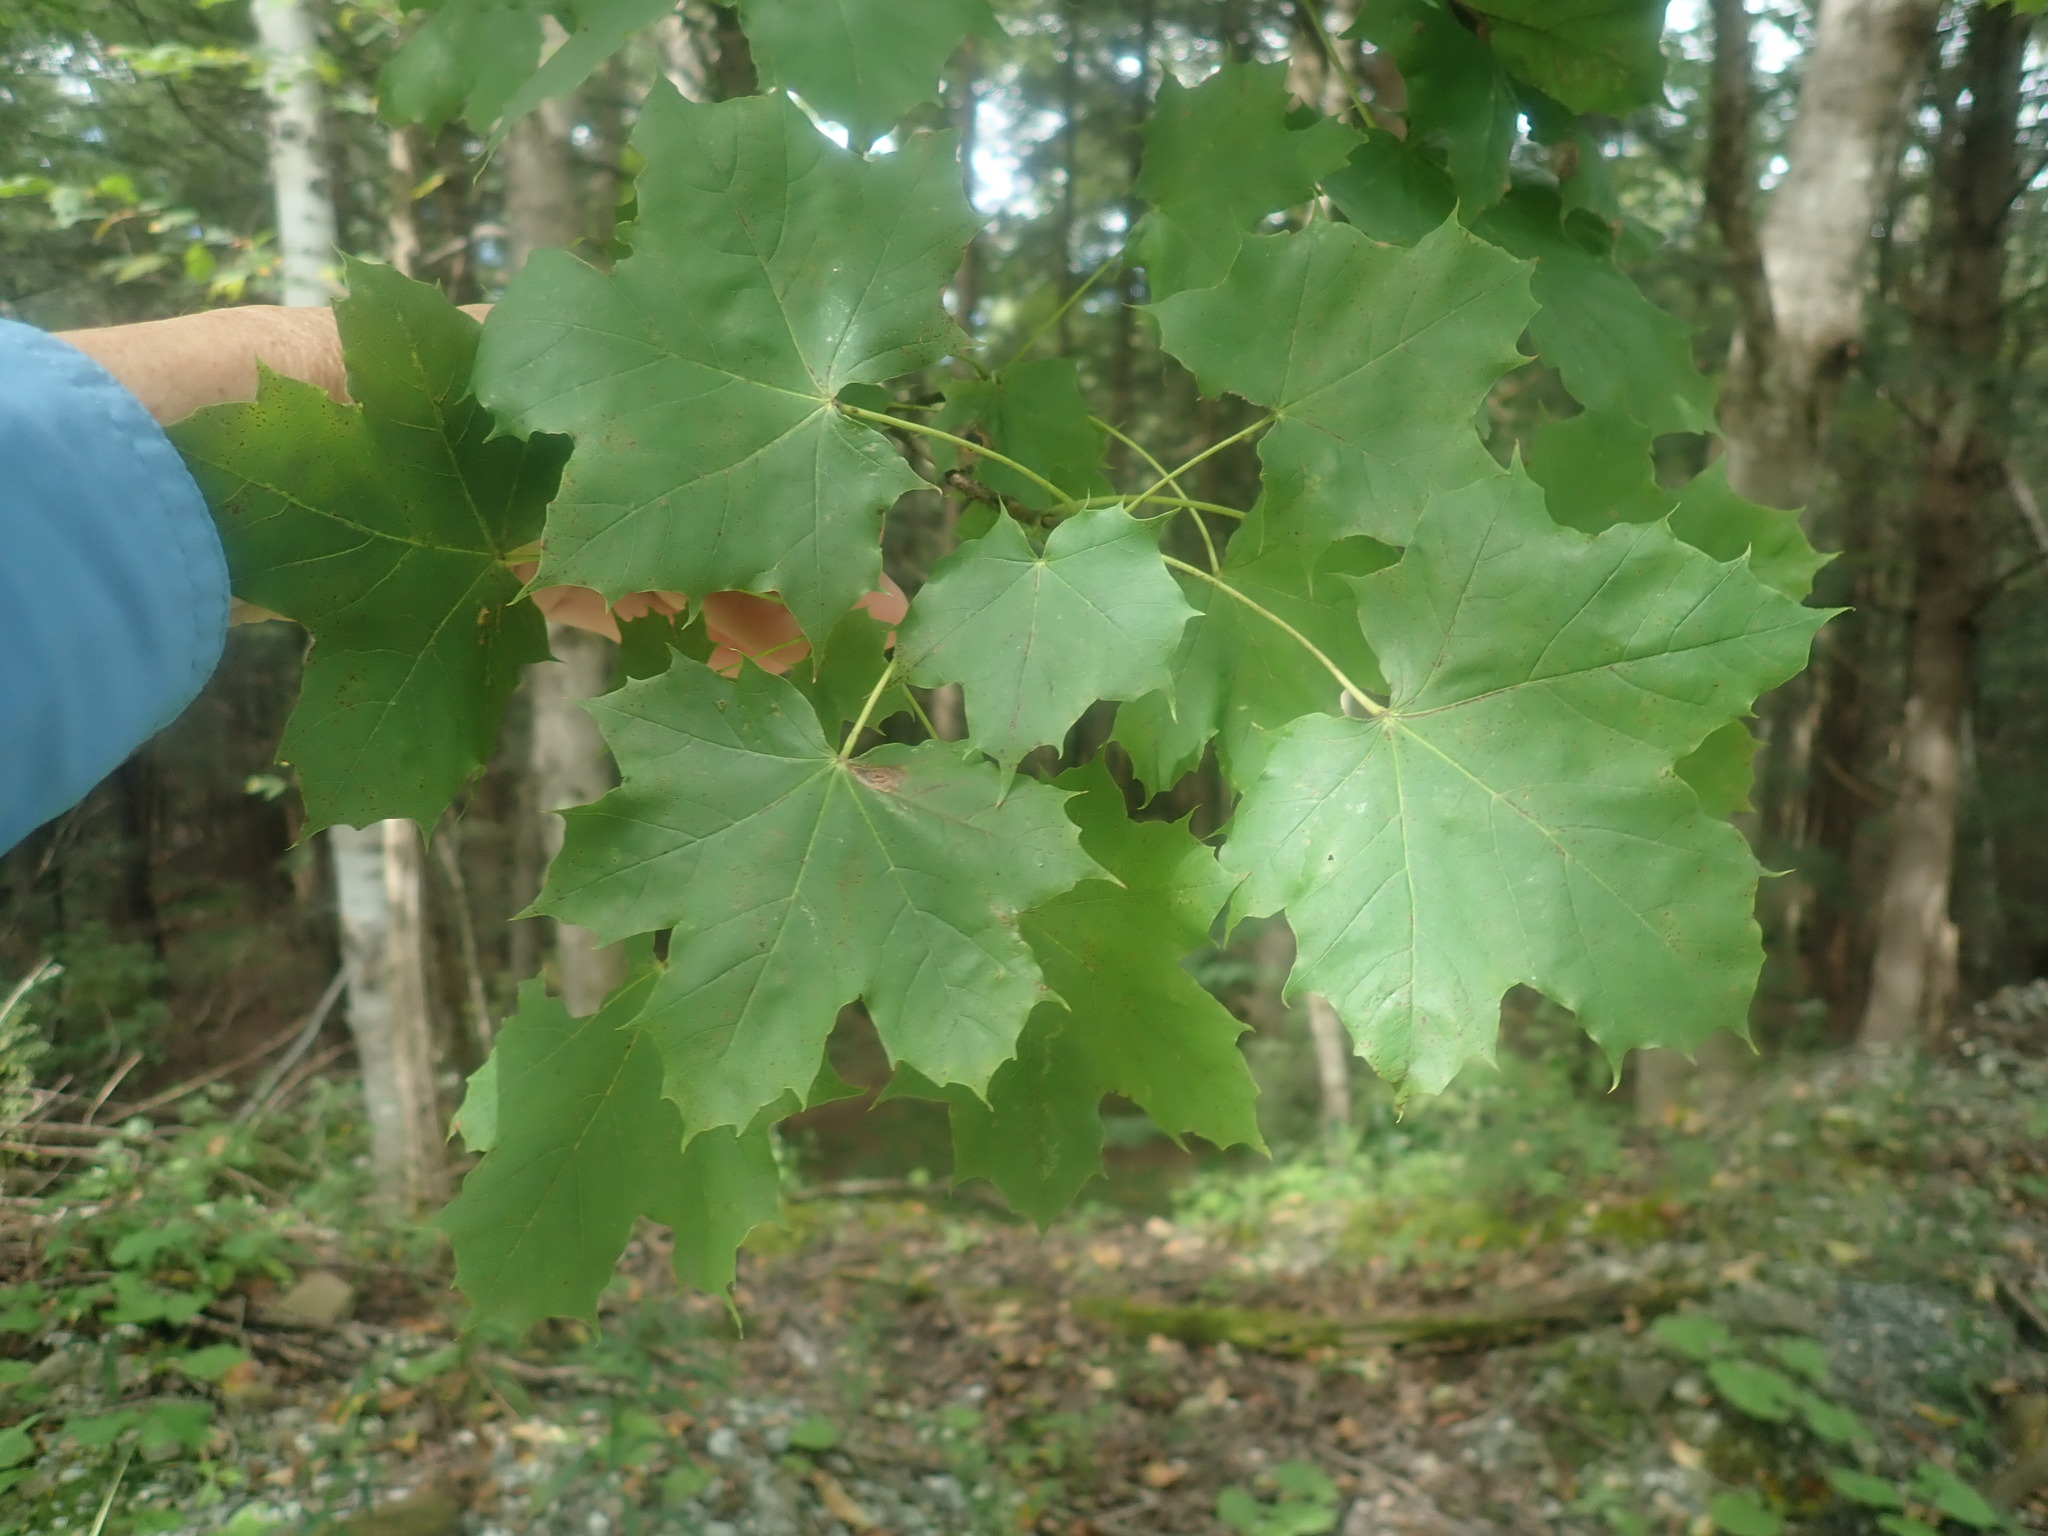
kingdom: Plantae
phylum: Tracheophyta
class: Magnoliopsida
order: Sapindales
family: Sapindaceae
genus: Acer
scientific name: Acer platanoides
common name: Norway maple
